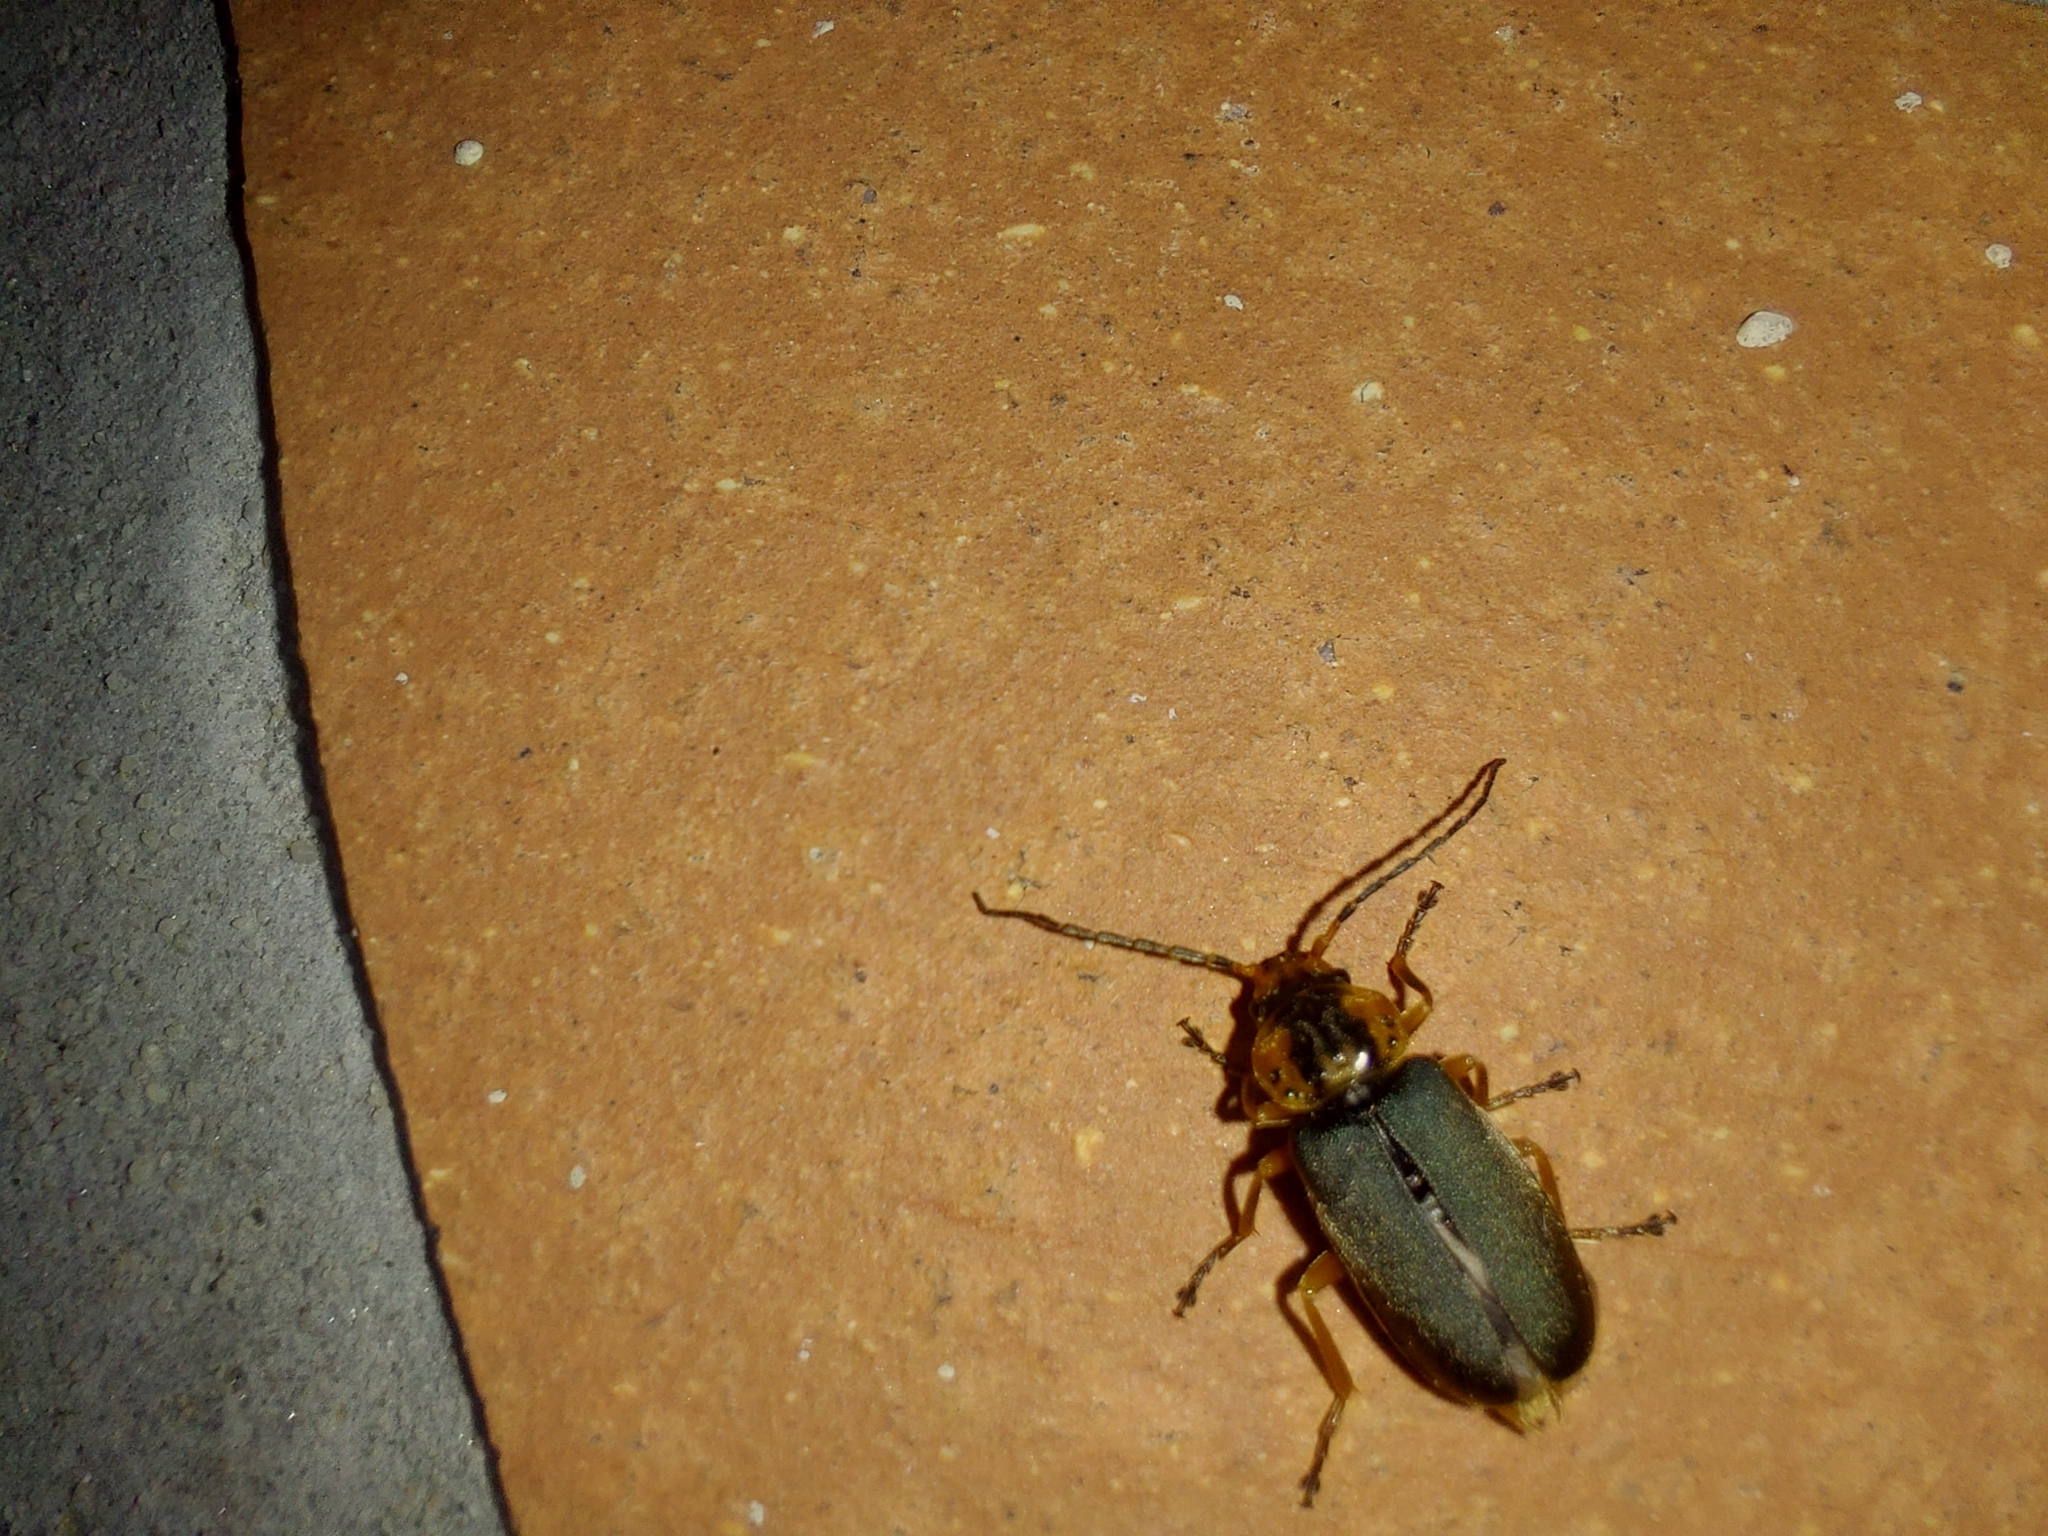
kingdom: Animalia
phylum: Arthropoda
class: Insecta
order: Coleoptera
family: Cantharidae
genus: Afronycha
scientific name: Afronycha
